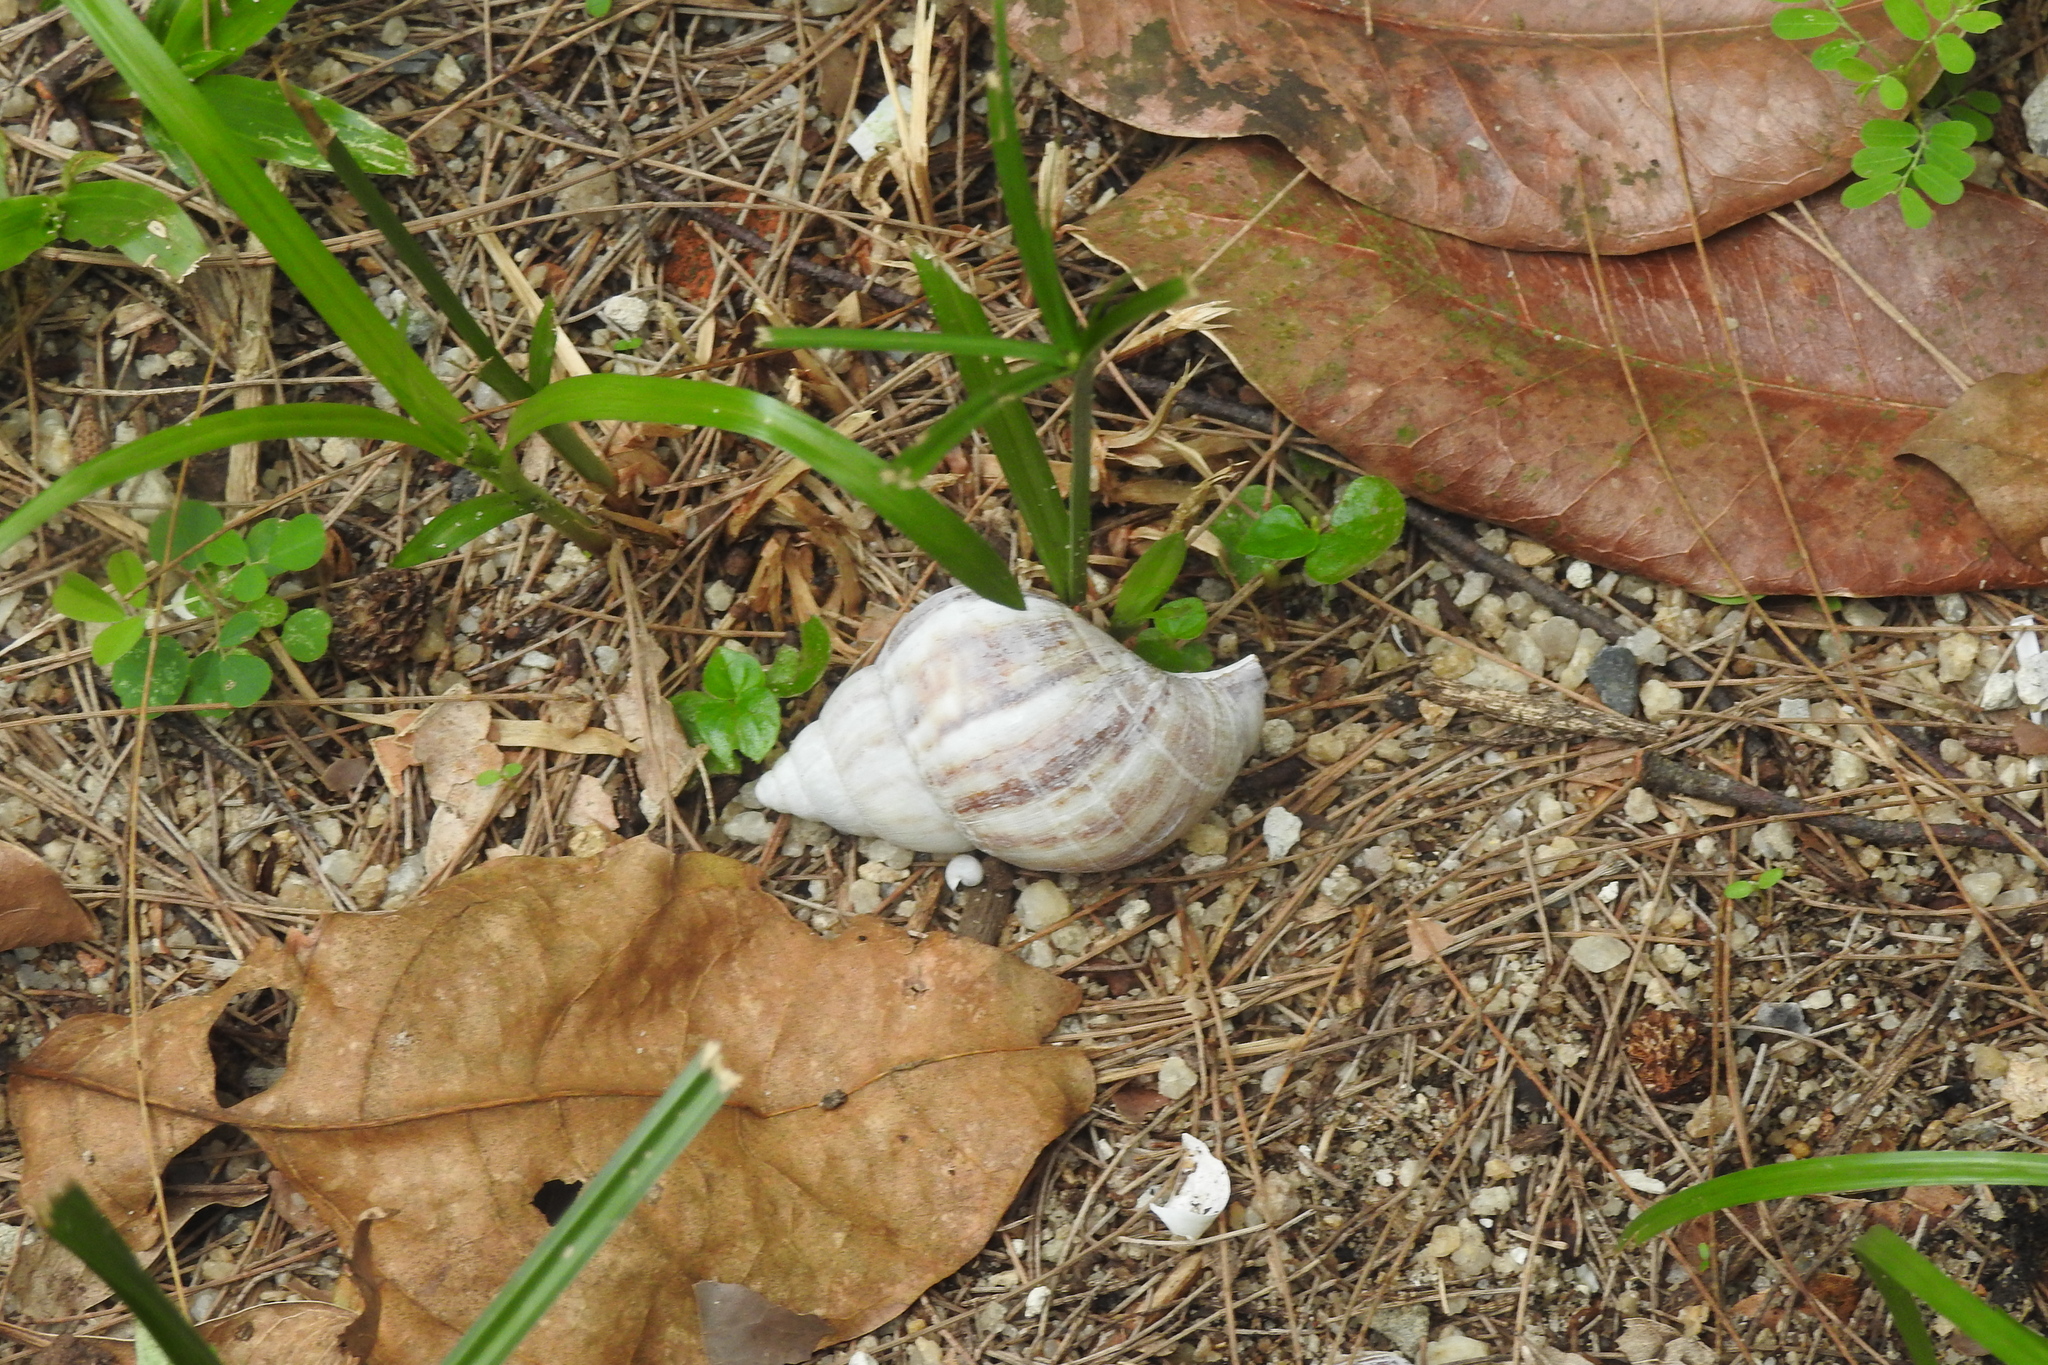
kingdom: Animalia
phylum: Mollusca
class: Gastropoda
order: Stylommatophora
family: Achatinidae
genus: Lissachatina
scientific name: Lissachatina fulica
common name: Giant african snail
